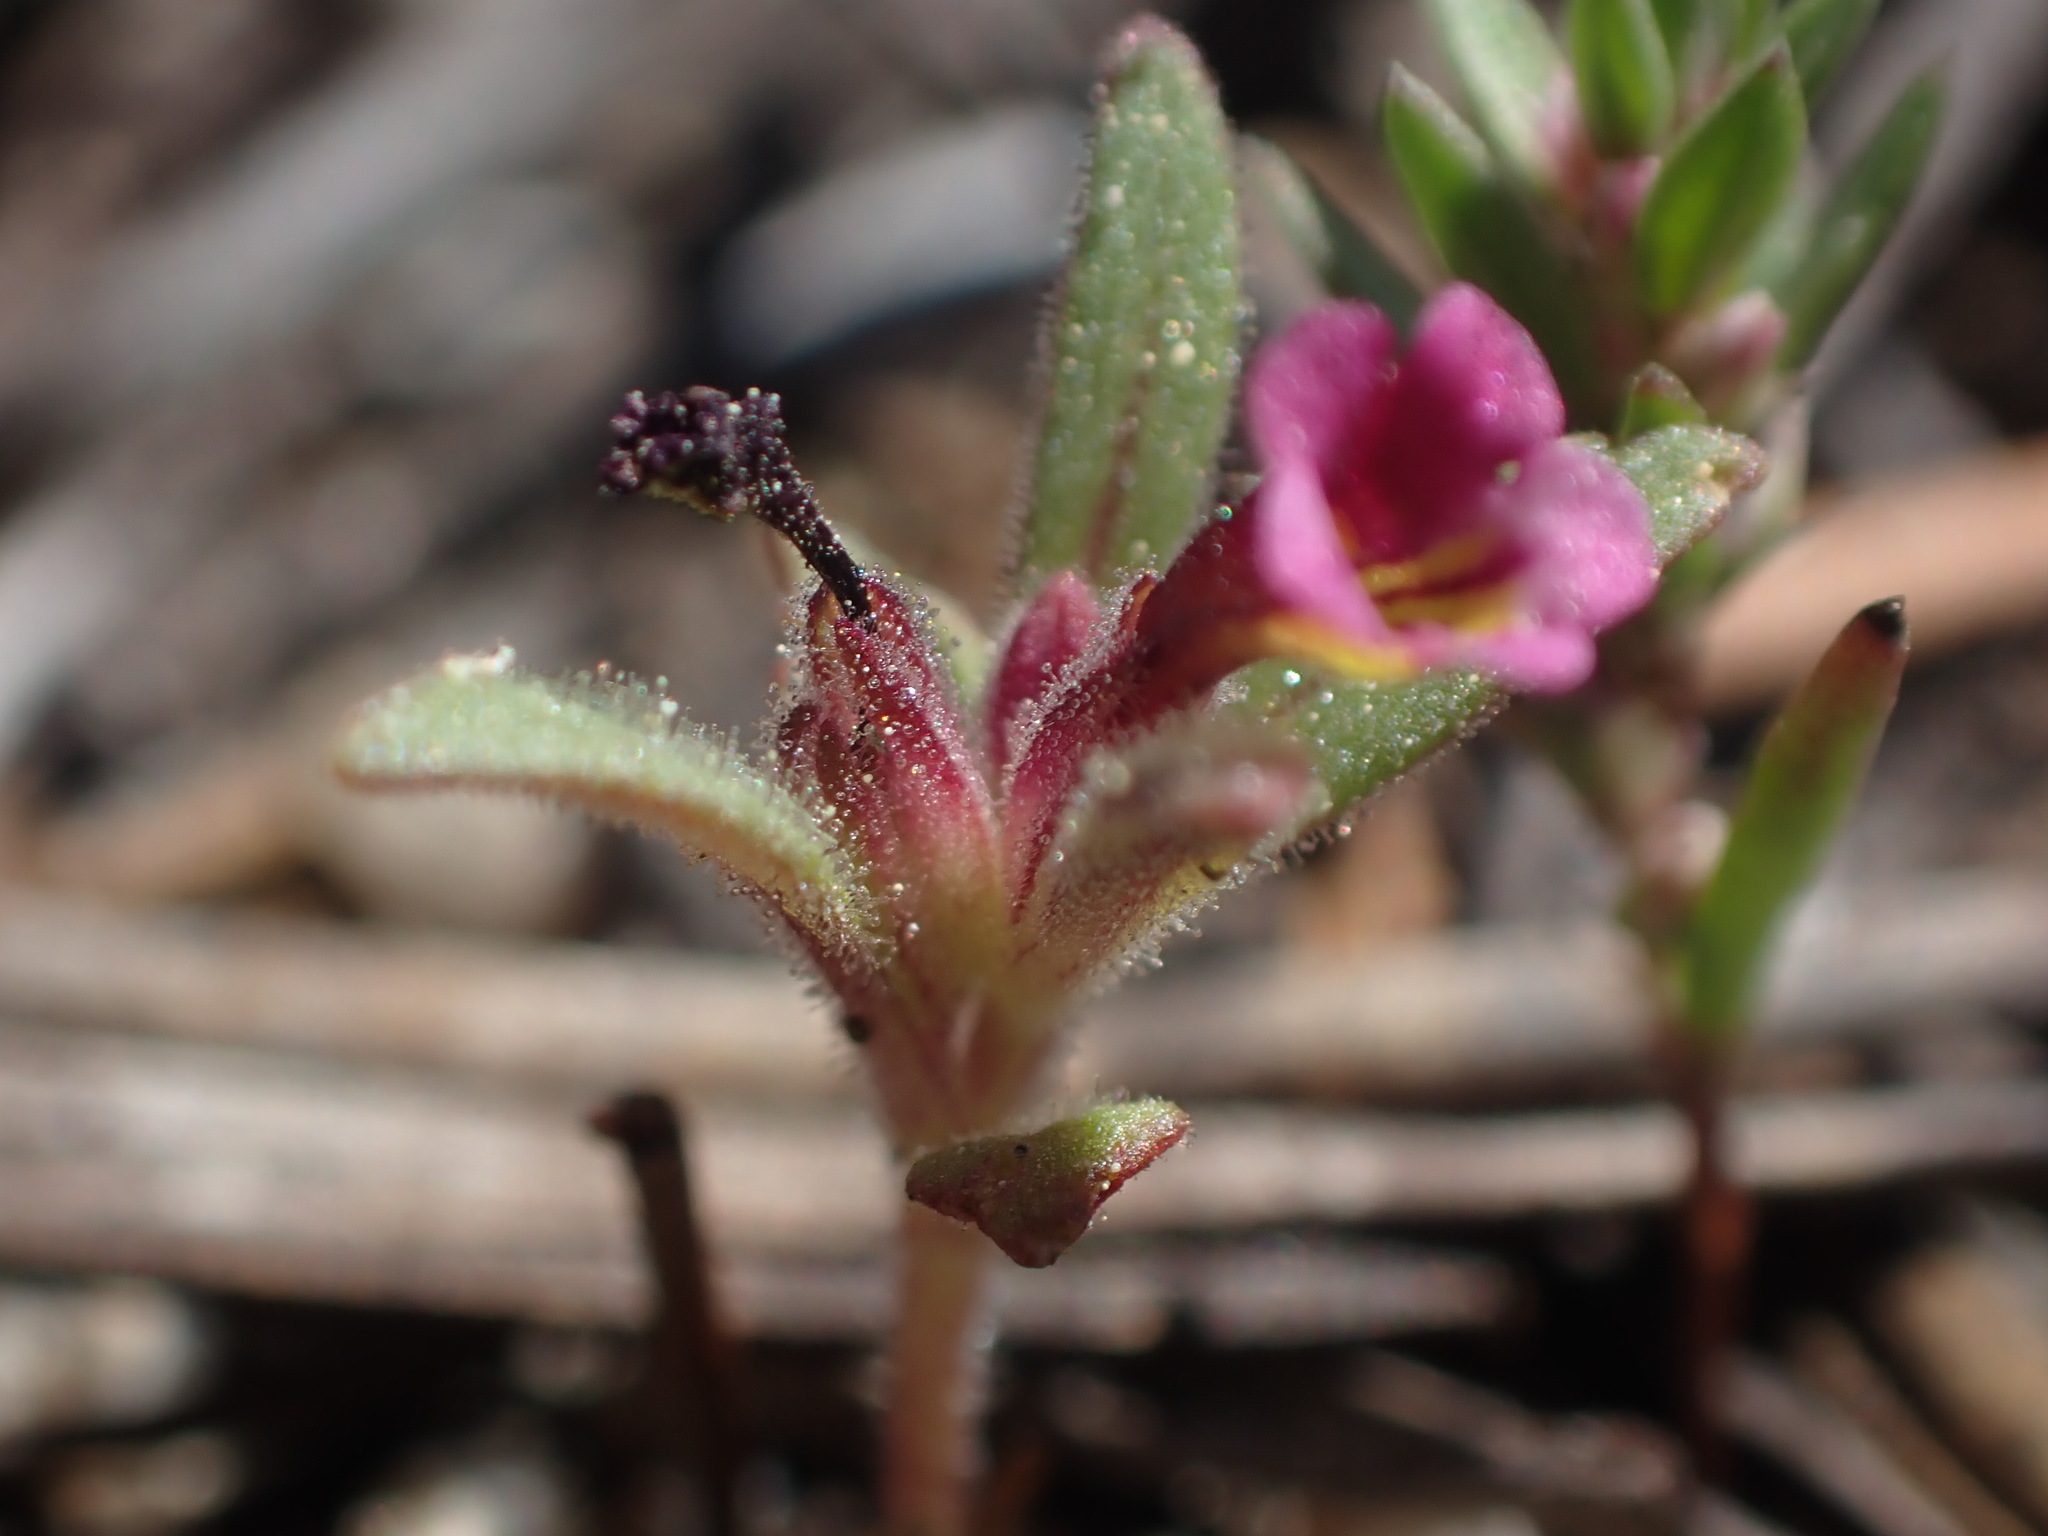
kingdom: Plantae
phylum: Tracheophyta
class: Magnoliopsida
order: Lamiales
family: Phrymaceae
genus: Diplacus
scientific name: Diplacus leptaleus
